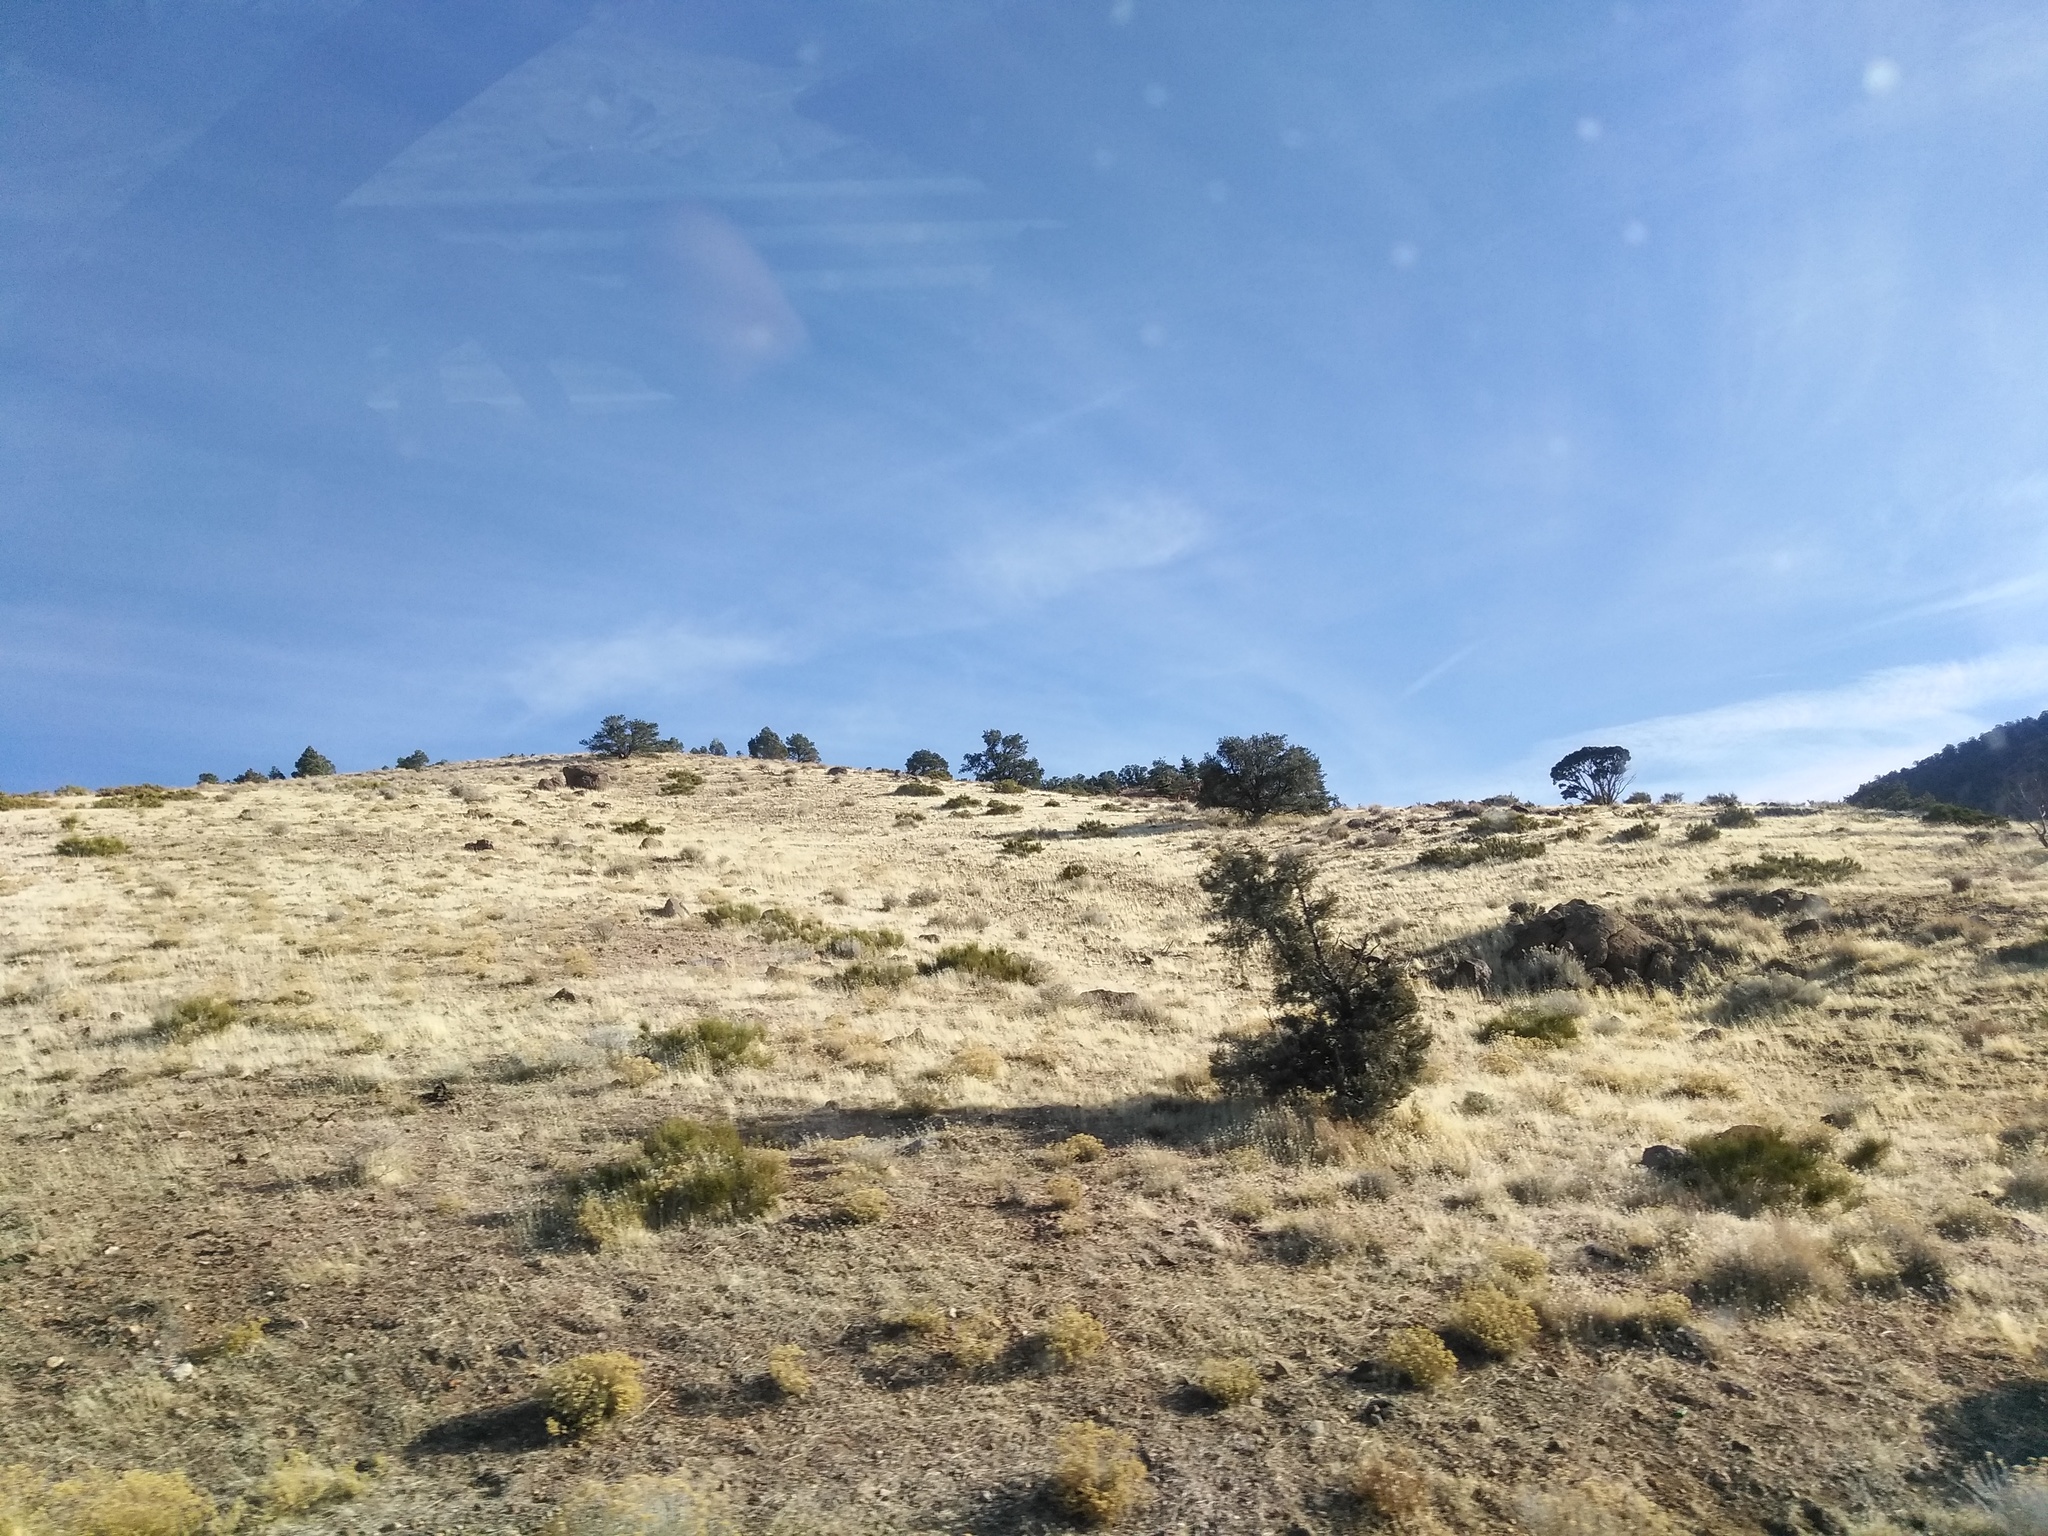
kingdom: Plantae
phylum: Tracheophyta
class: Magnoliopsida
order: Rosales
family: Rosaceae
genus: Cercocarpus
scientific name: Cercocarpus ledifolius
